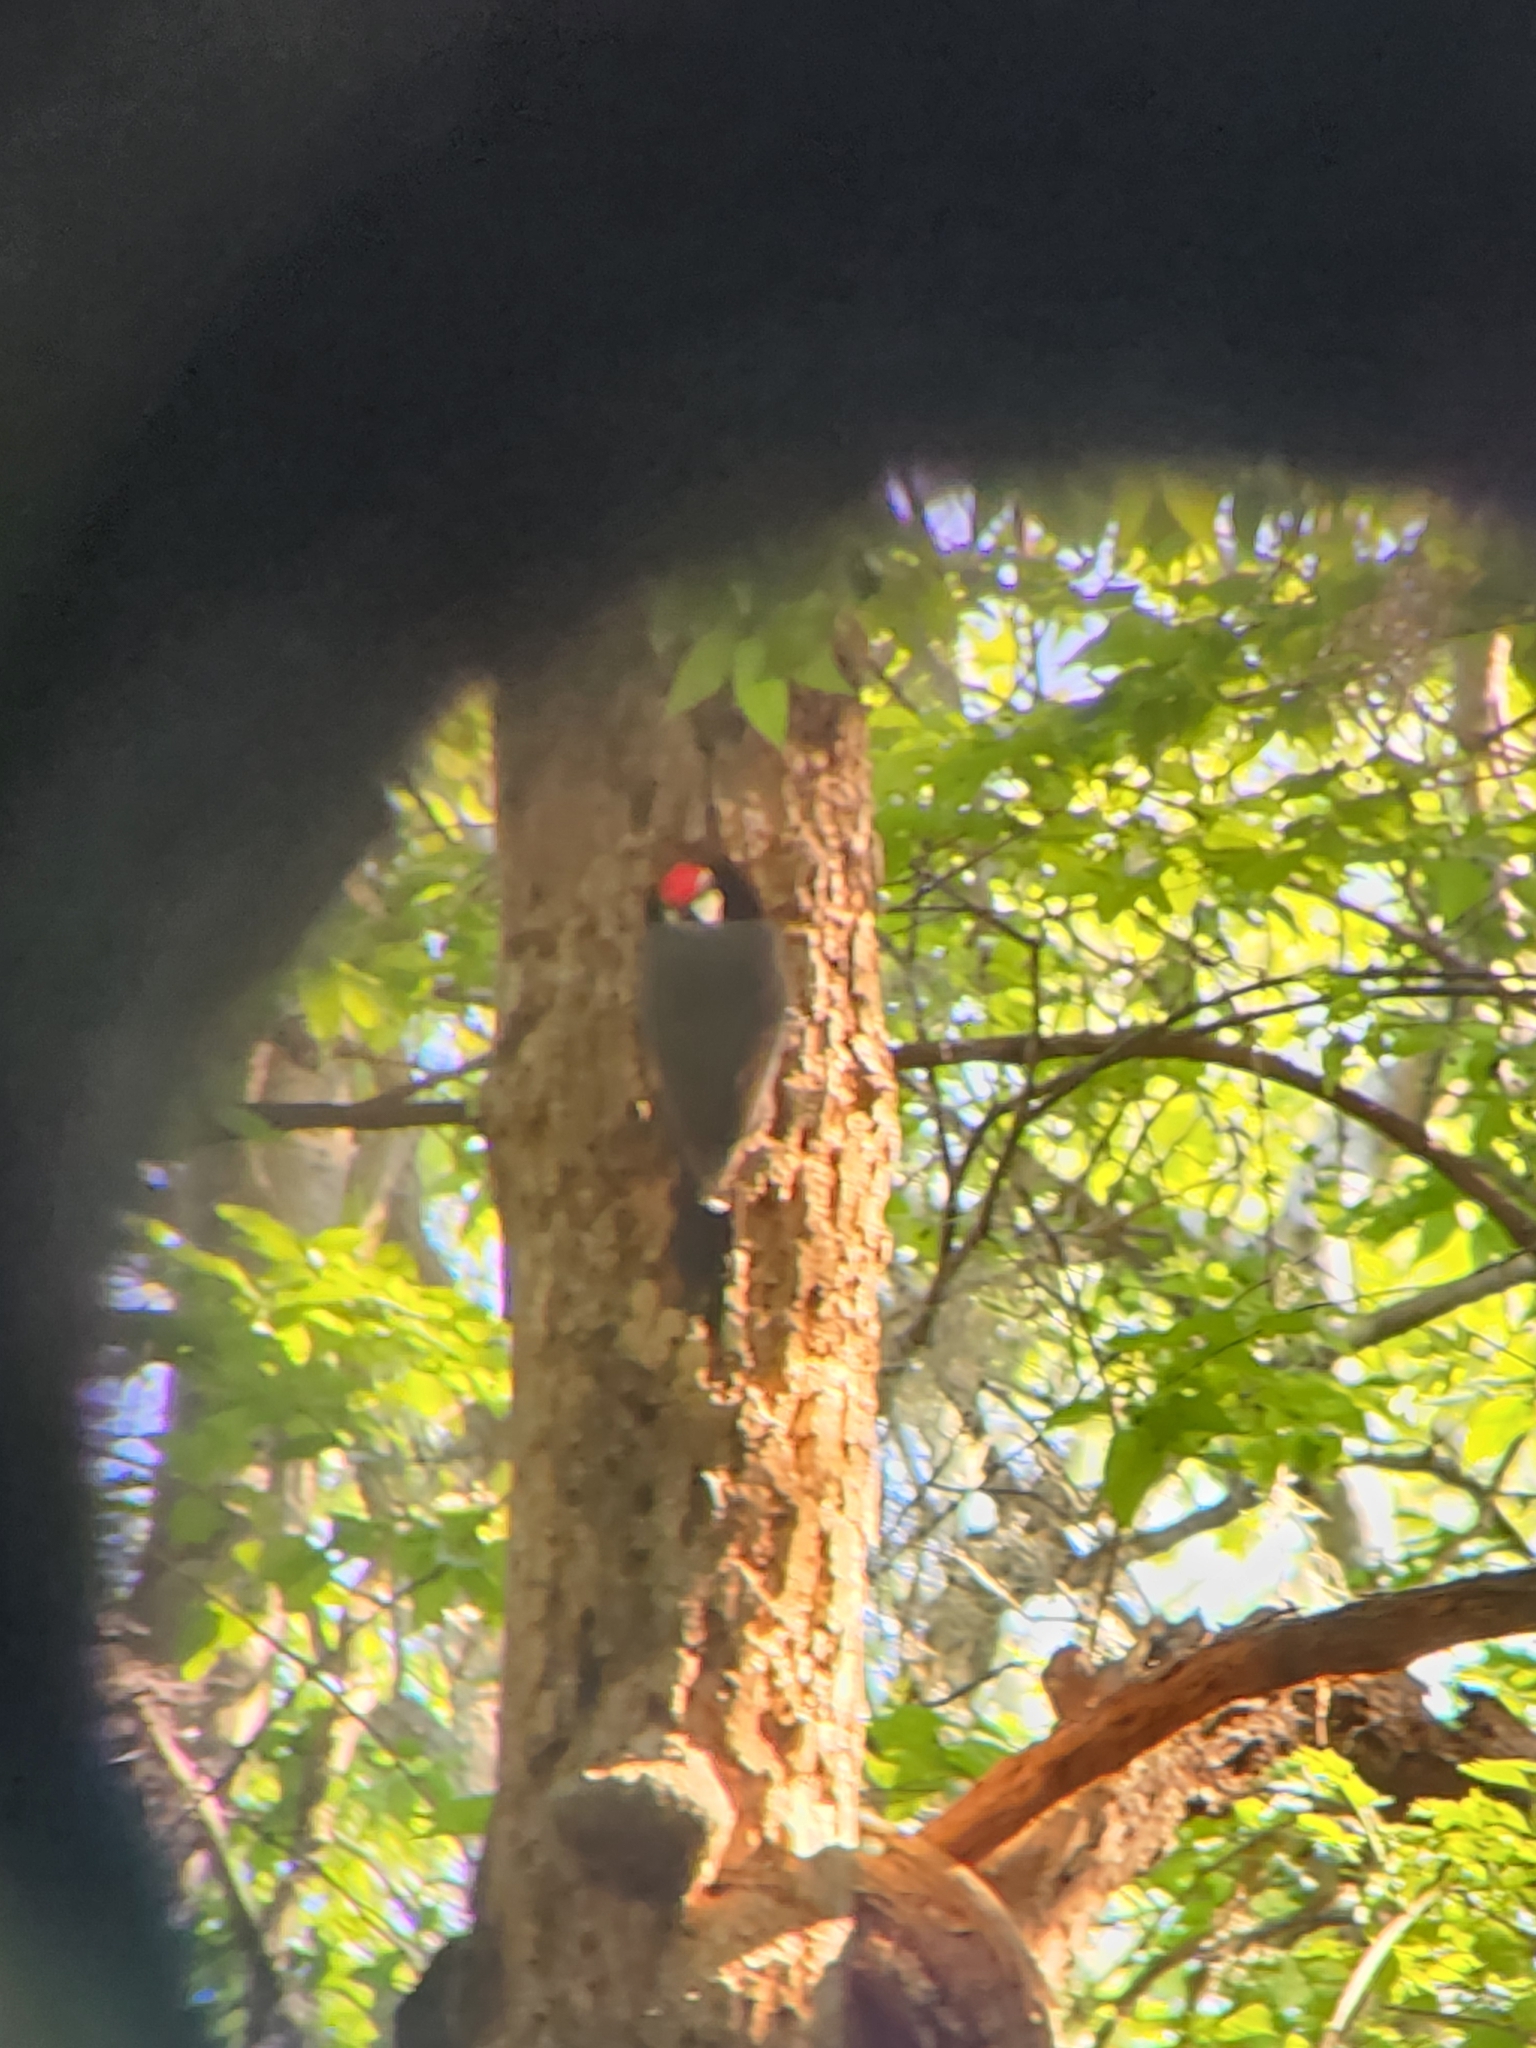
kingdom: Animalia
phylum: Chordata
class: Aves
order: Piciformes
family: Picidae
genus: Dryocopus
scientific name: Dryocopus pileatus
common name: Pileated woodpecker
